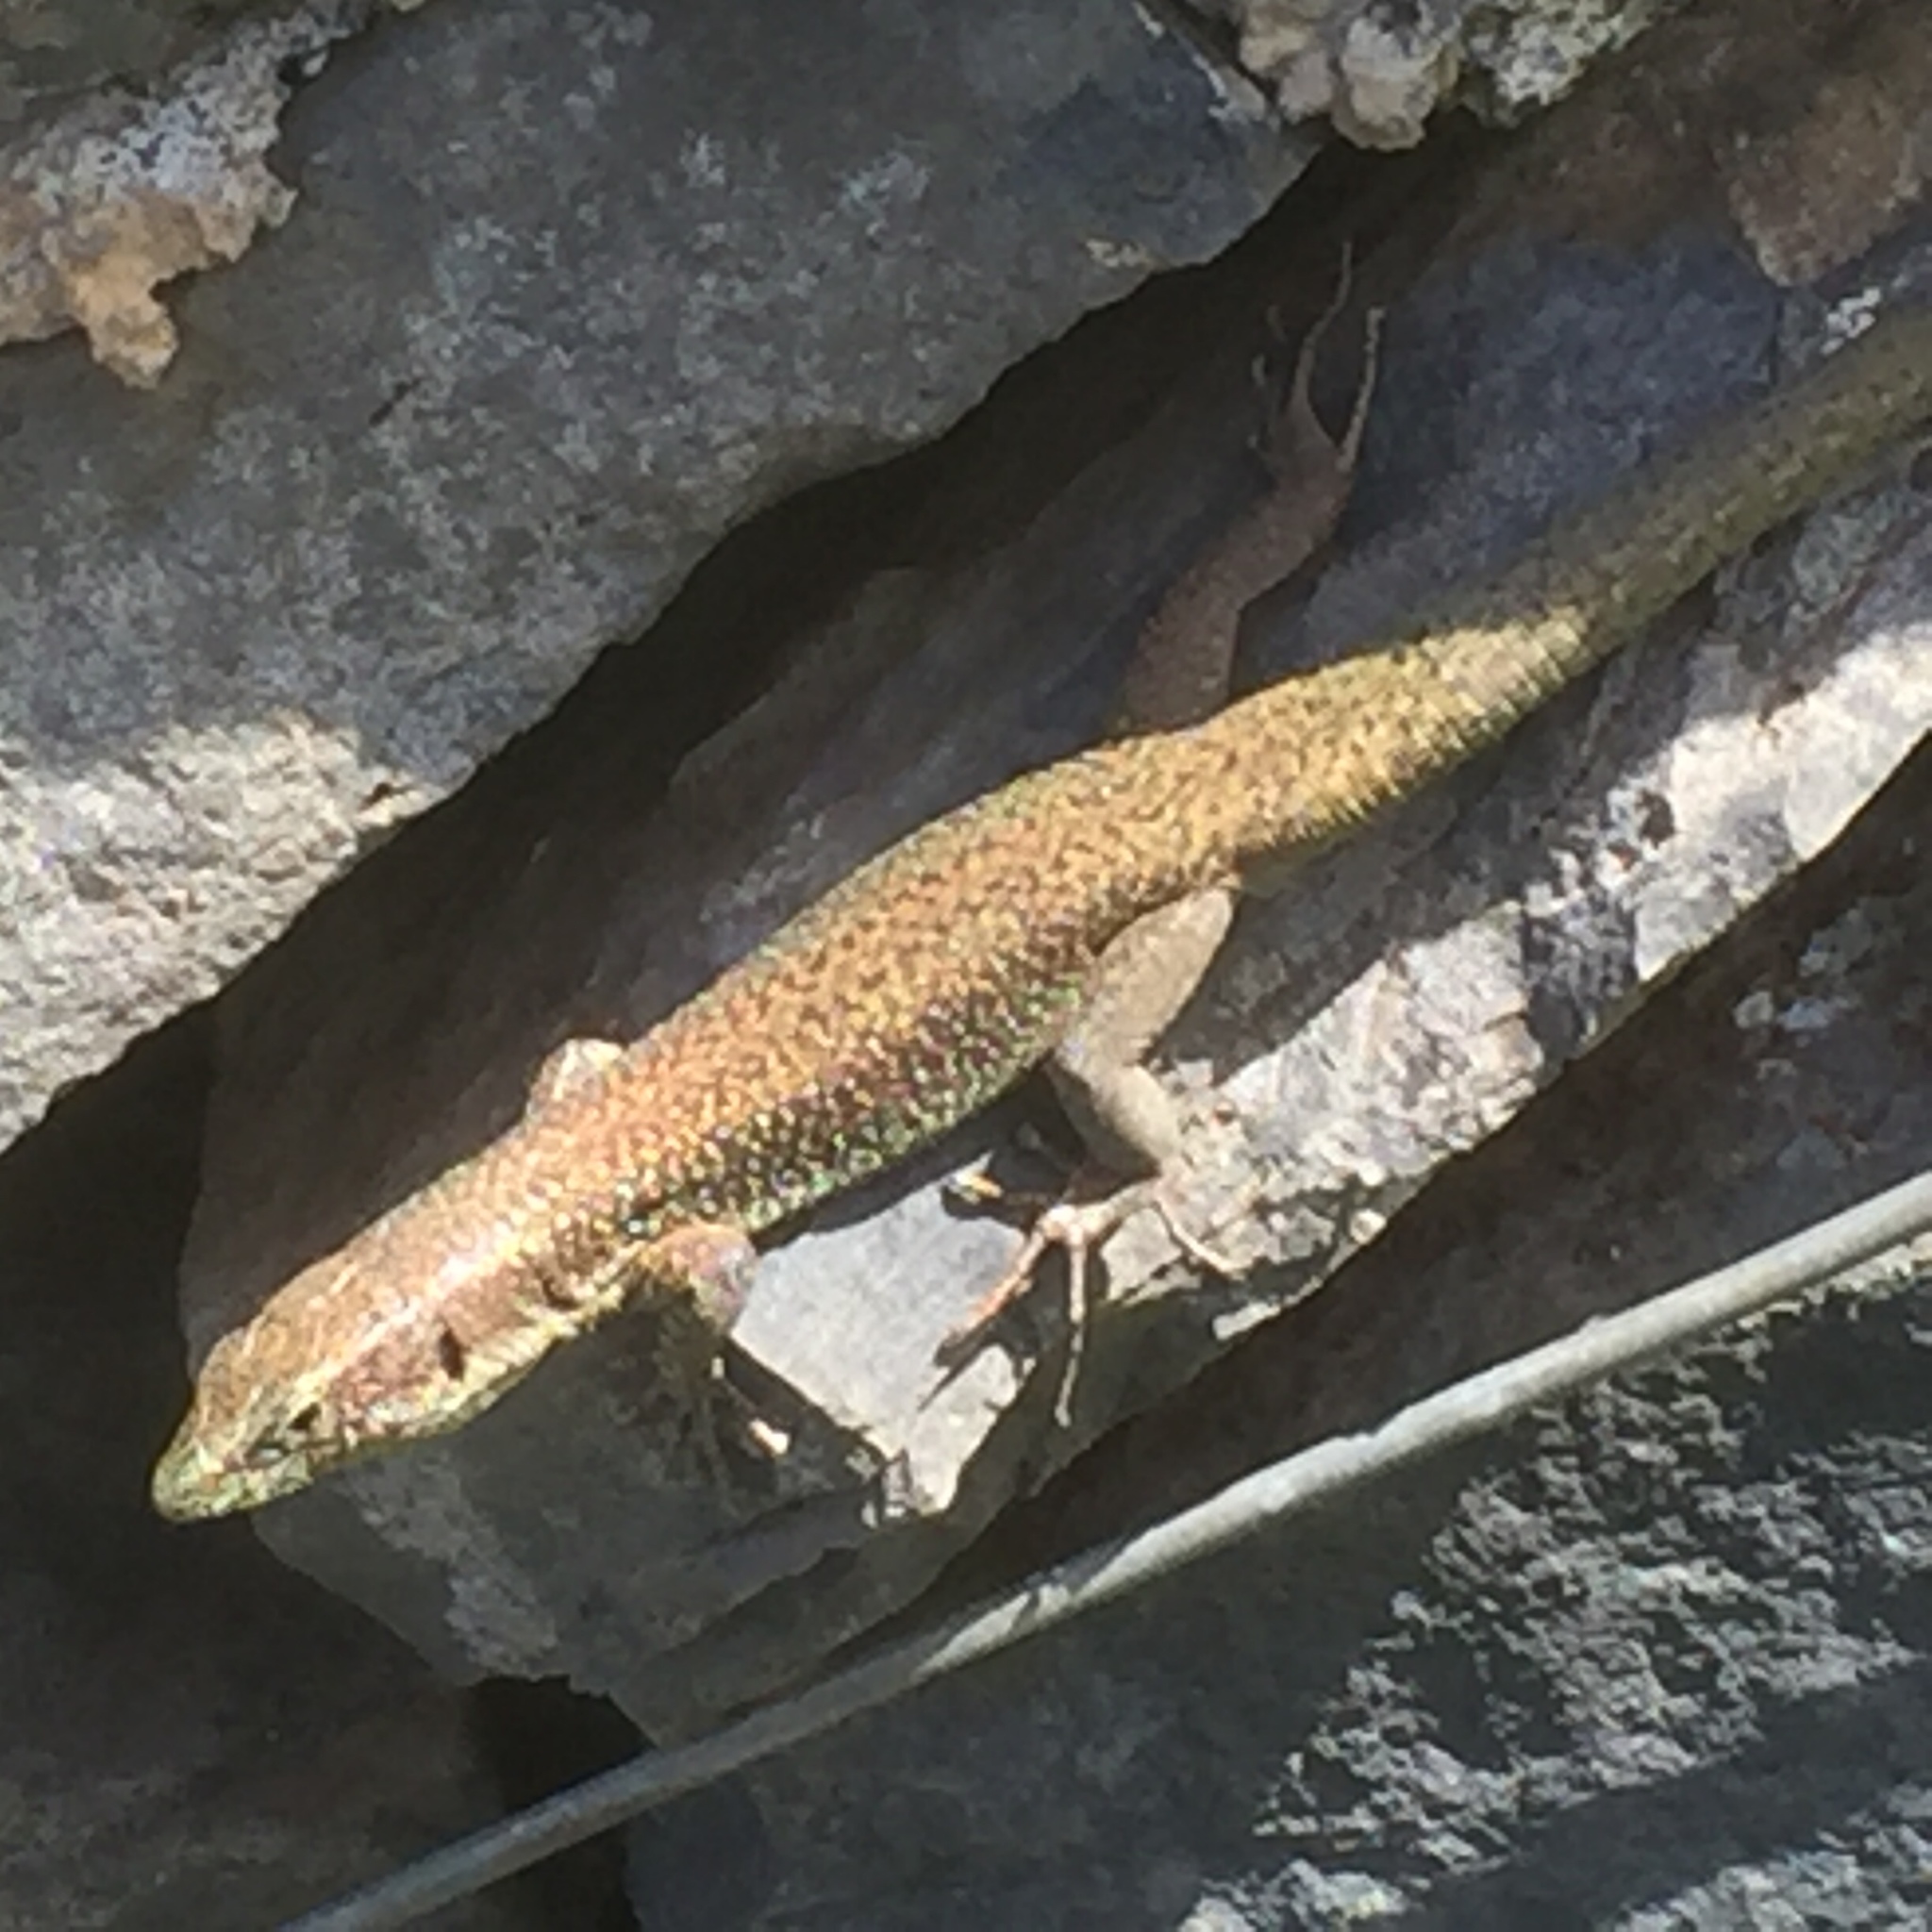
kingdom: Animalia
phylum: Chordata
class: Squamata
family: Lacertidae
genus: Teira
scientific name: Teira dugesii
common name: Madeira lizard
